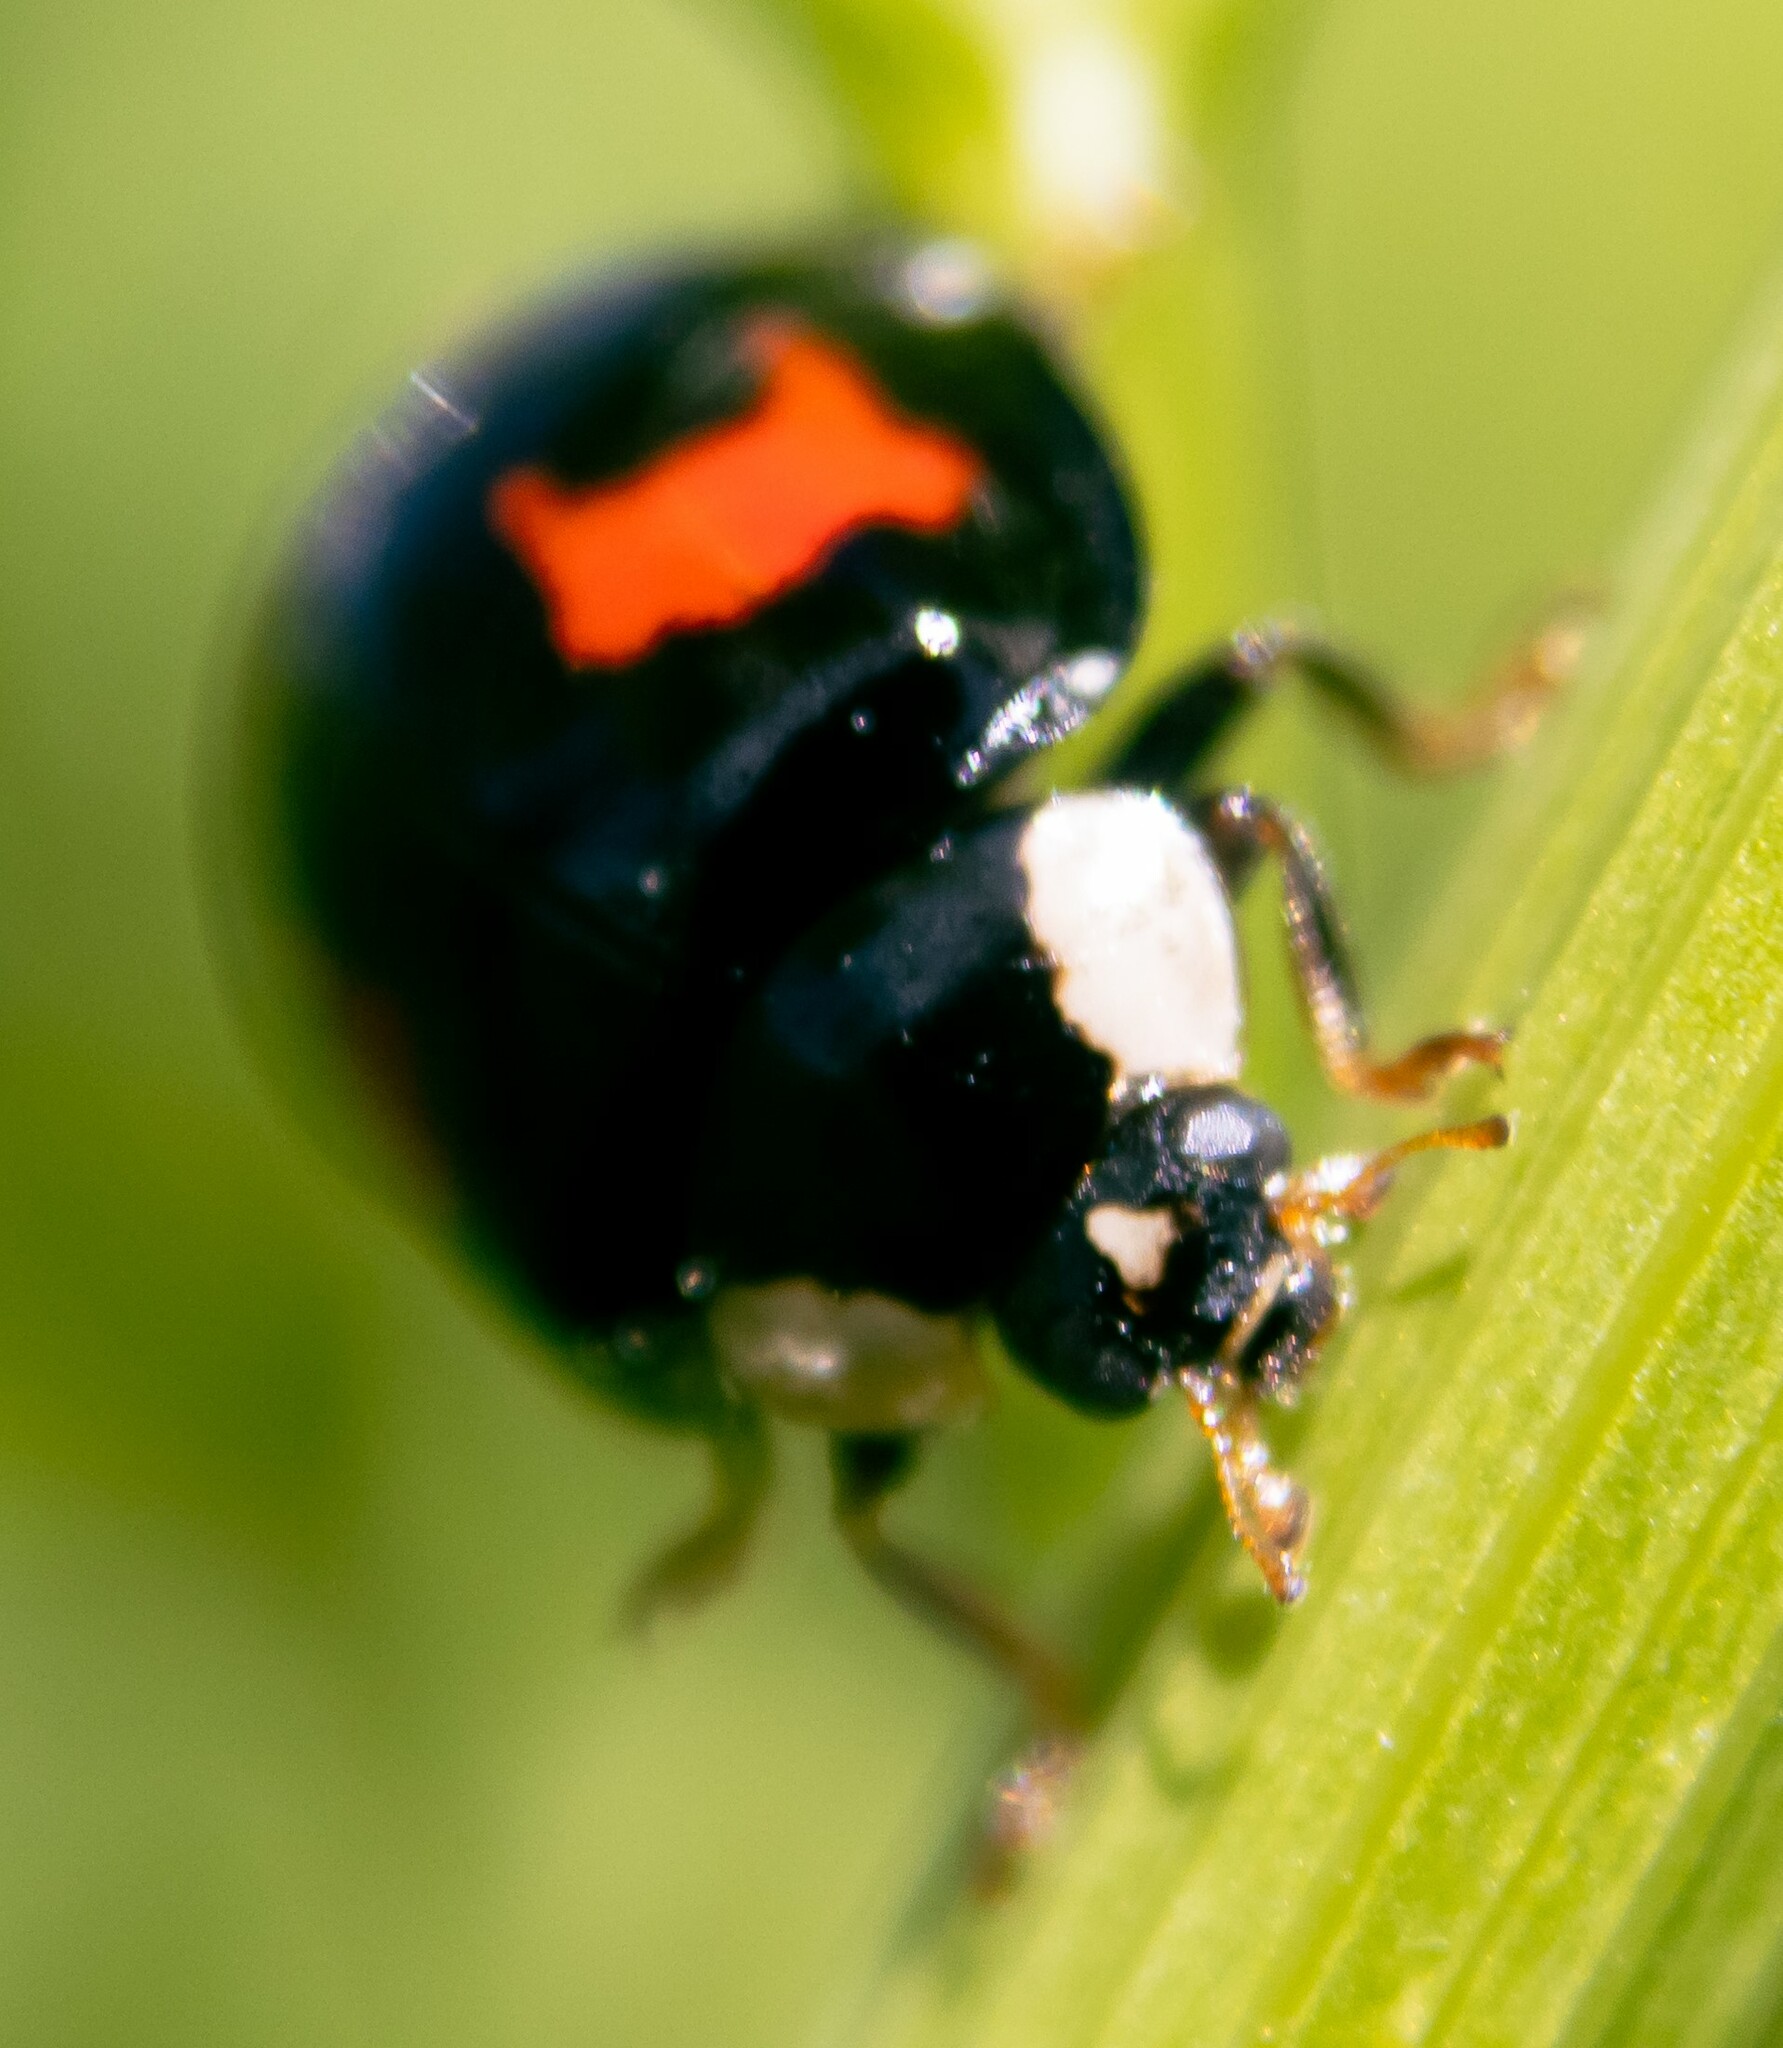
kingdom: Animalia
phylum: Arthropoda
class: Insecta
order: Coleoptera
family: Coccinellidae
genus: Harmonia
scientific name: Harmonia axyridis
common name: Harlequin ladybird
